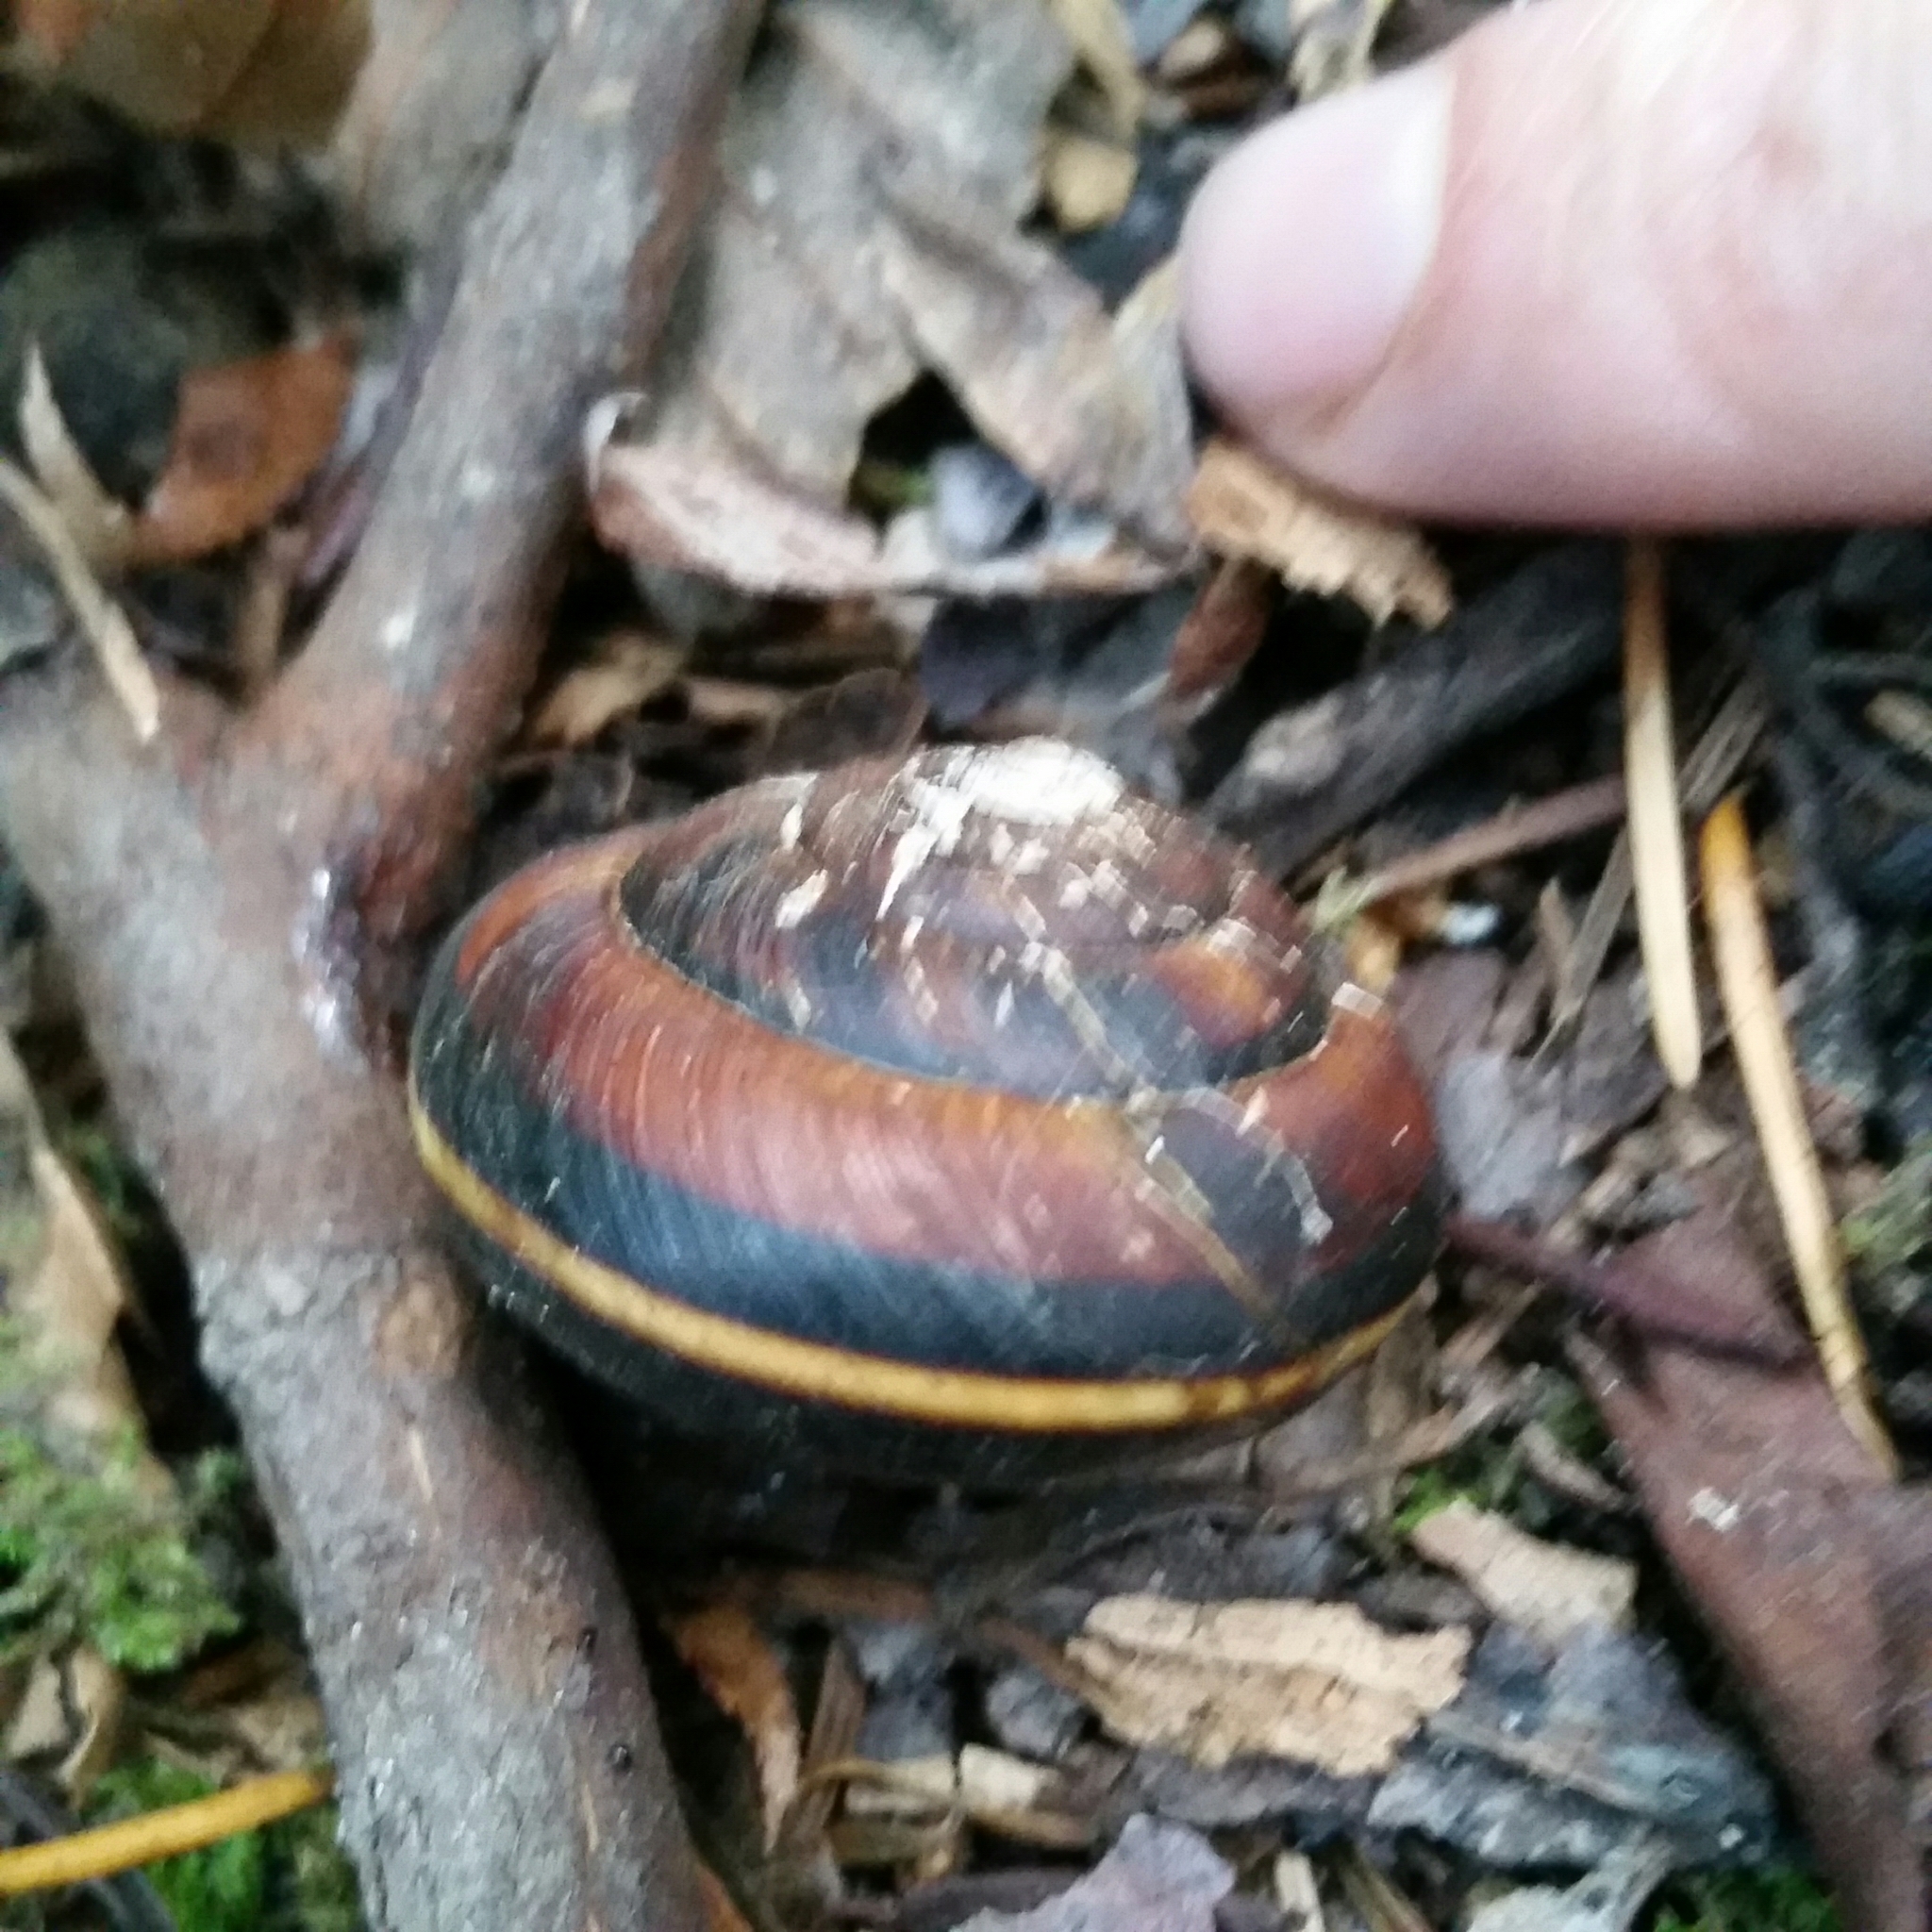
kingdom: Animalia
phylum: Mollusca
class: Gastropoda
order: Stylommatophora
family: Xanthonychidae
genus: Monadenia
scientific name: Monadenia fidelis
